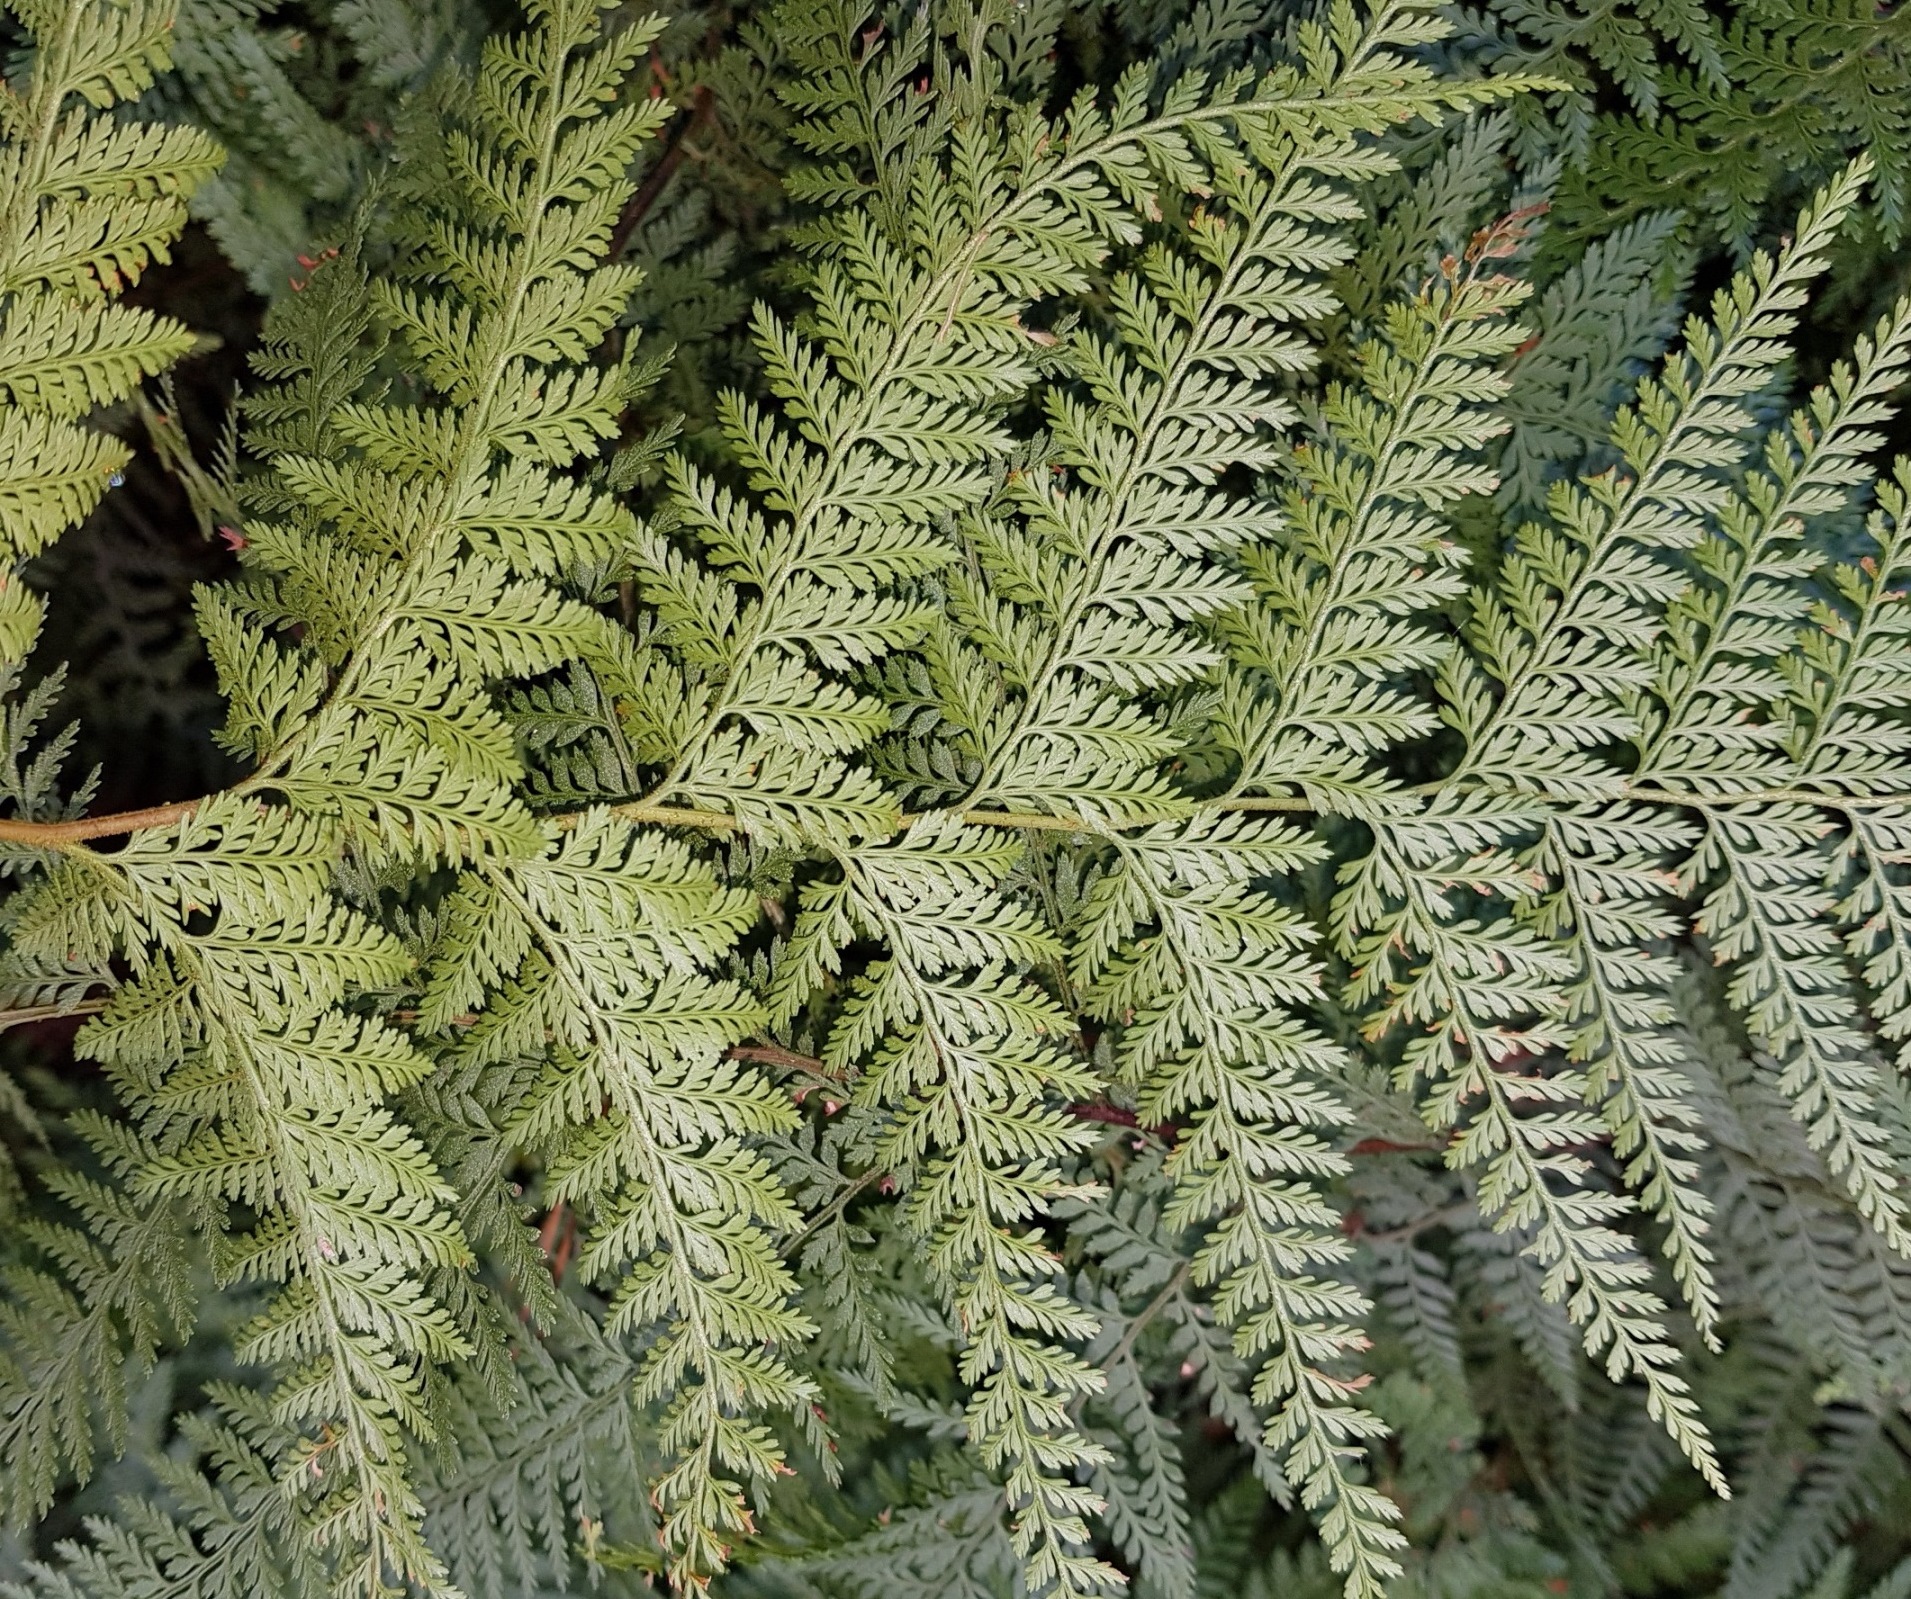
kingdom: Plantae
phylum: Tracheophyta
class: Polypodiopsida
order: Polypodiales
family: Dennstaedtiaceae
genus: Paesia
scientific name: Paesia scaberula
